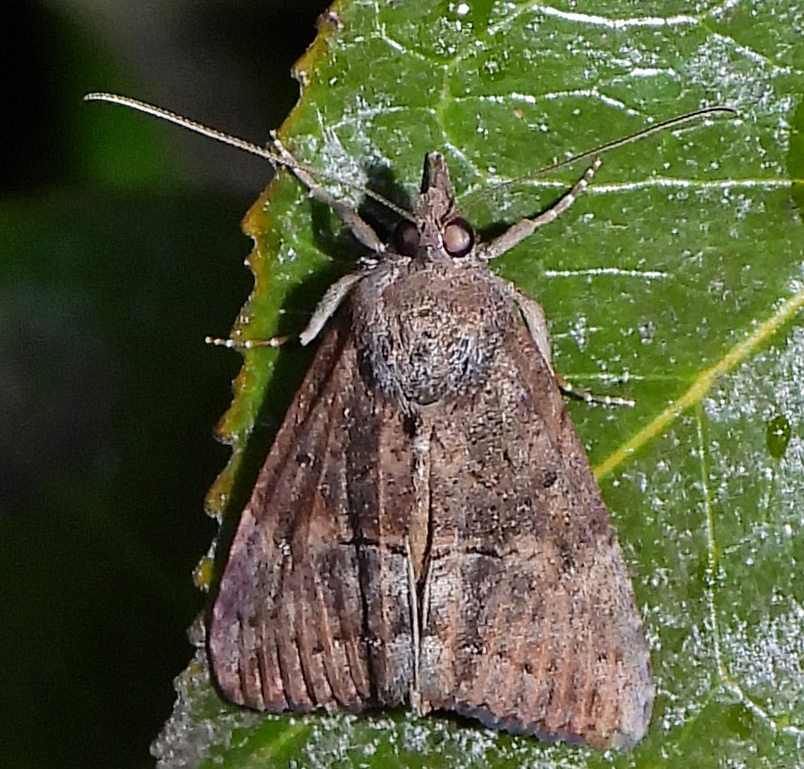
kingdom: Animalia
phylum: Arthropoda
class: Insecta
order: Lepidoptera
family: Erebidae
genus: Hypena
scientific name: Hypena scabra
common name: Green cloverworm
